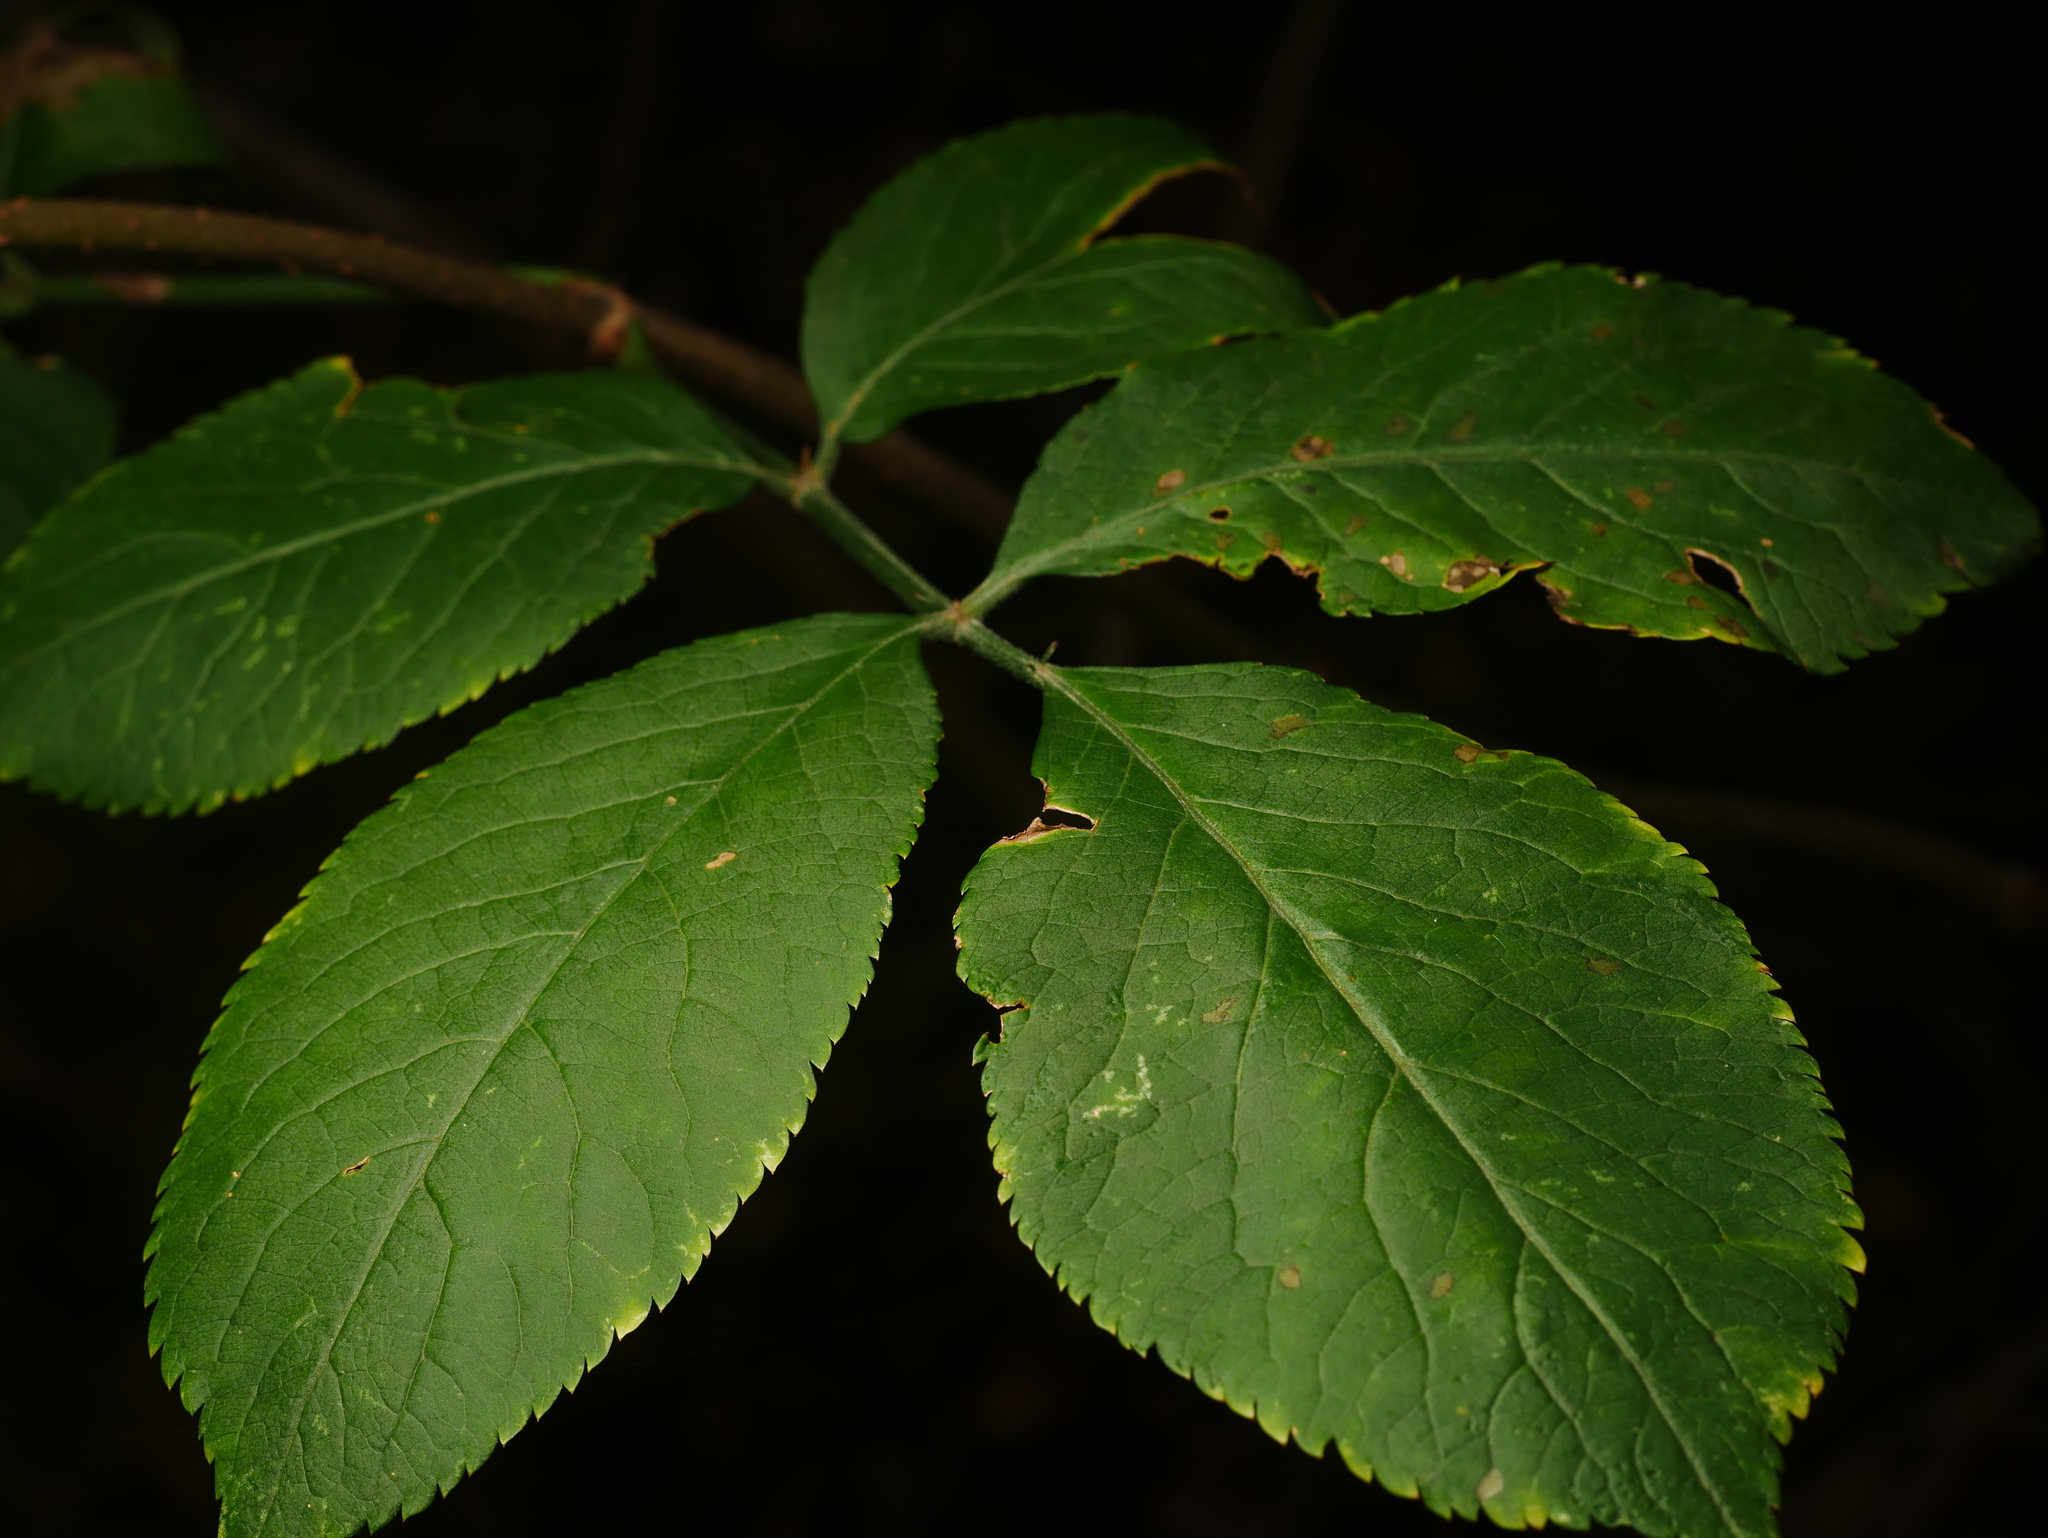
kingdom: Plantae
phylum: Tracheophyta
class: Magnoliopsida
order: Dipsacales
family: Viburnaceae
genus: Sambucus
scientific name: Sambucus nigra
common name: Elder
